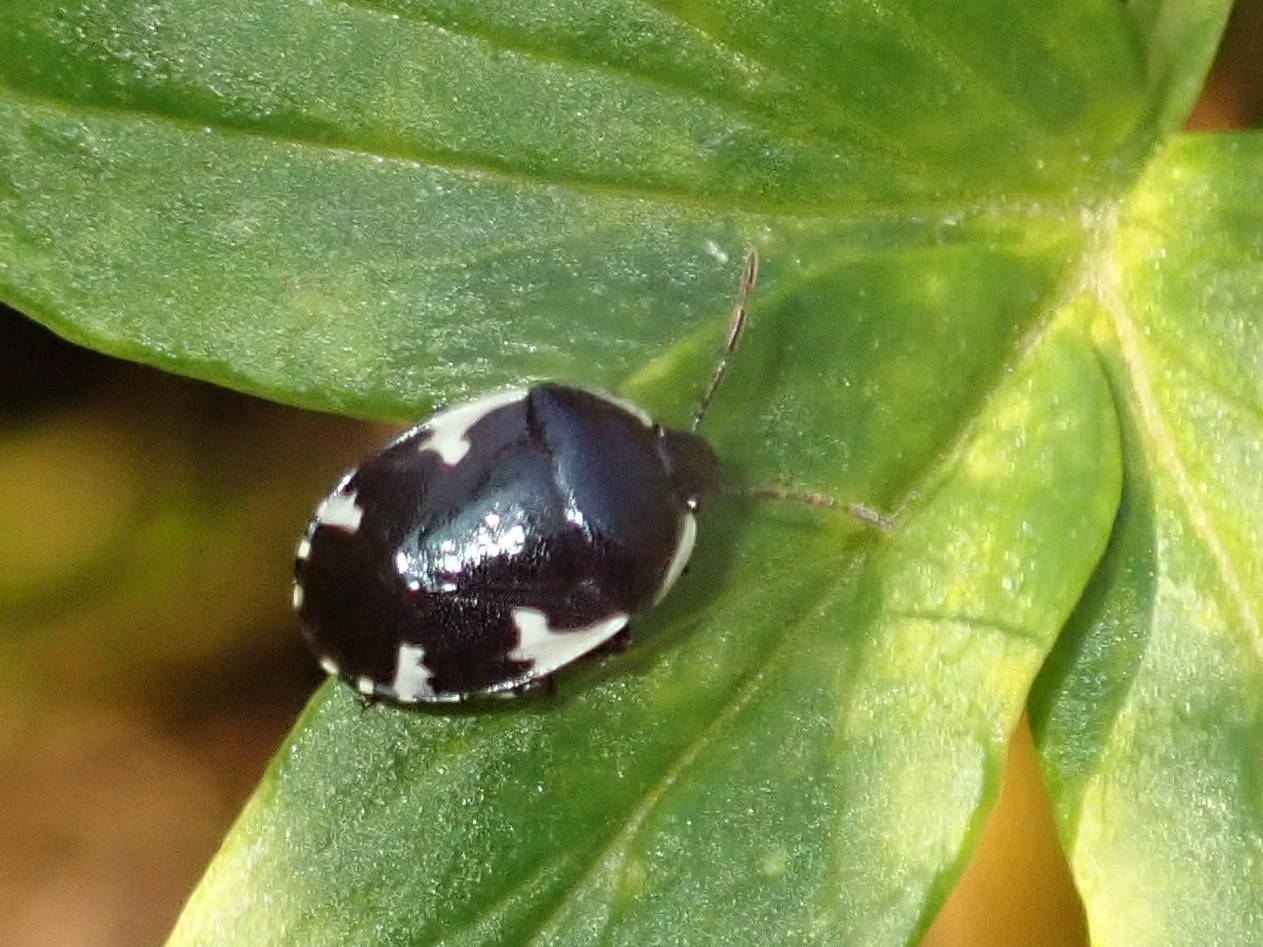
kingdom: Animalia
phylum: Arthropoda
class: Insecta
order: Hemiptera
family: Cydnidae
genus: Tritomegas
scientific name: Tritomegas sexmaculatus
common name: Rambur's pied shieldbug
